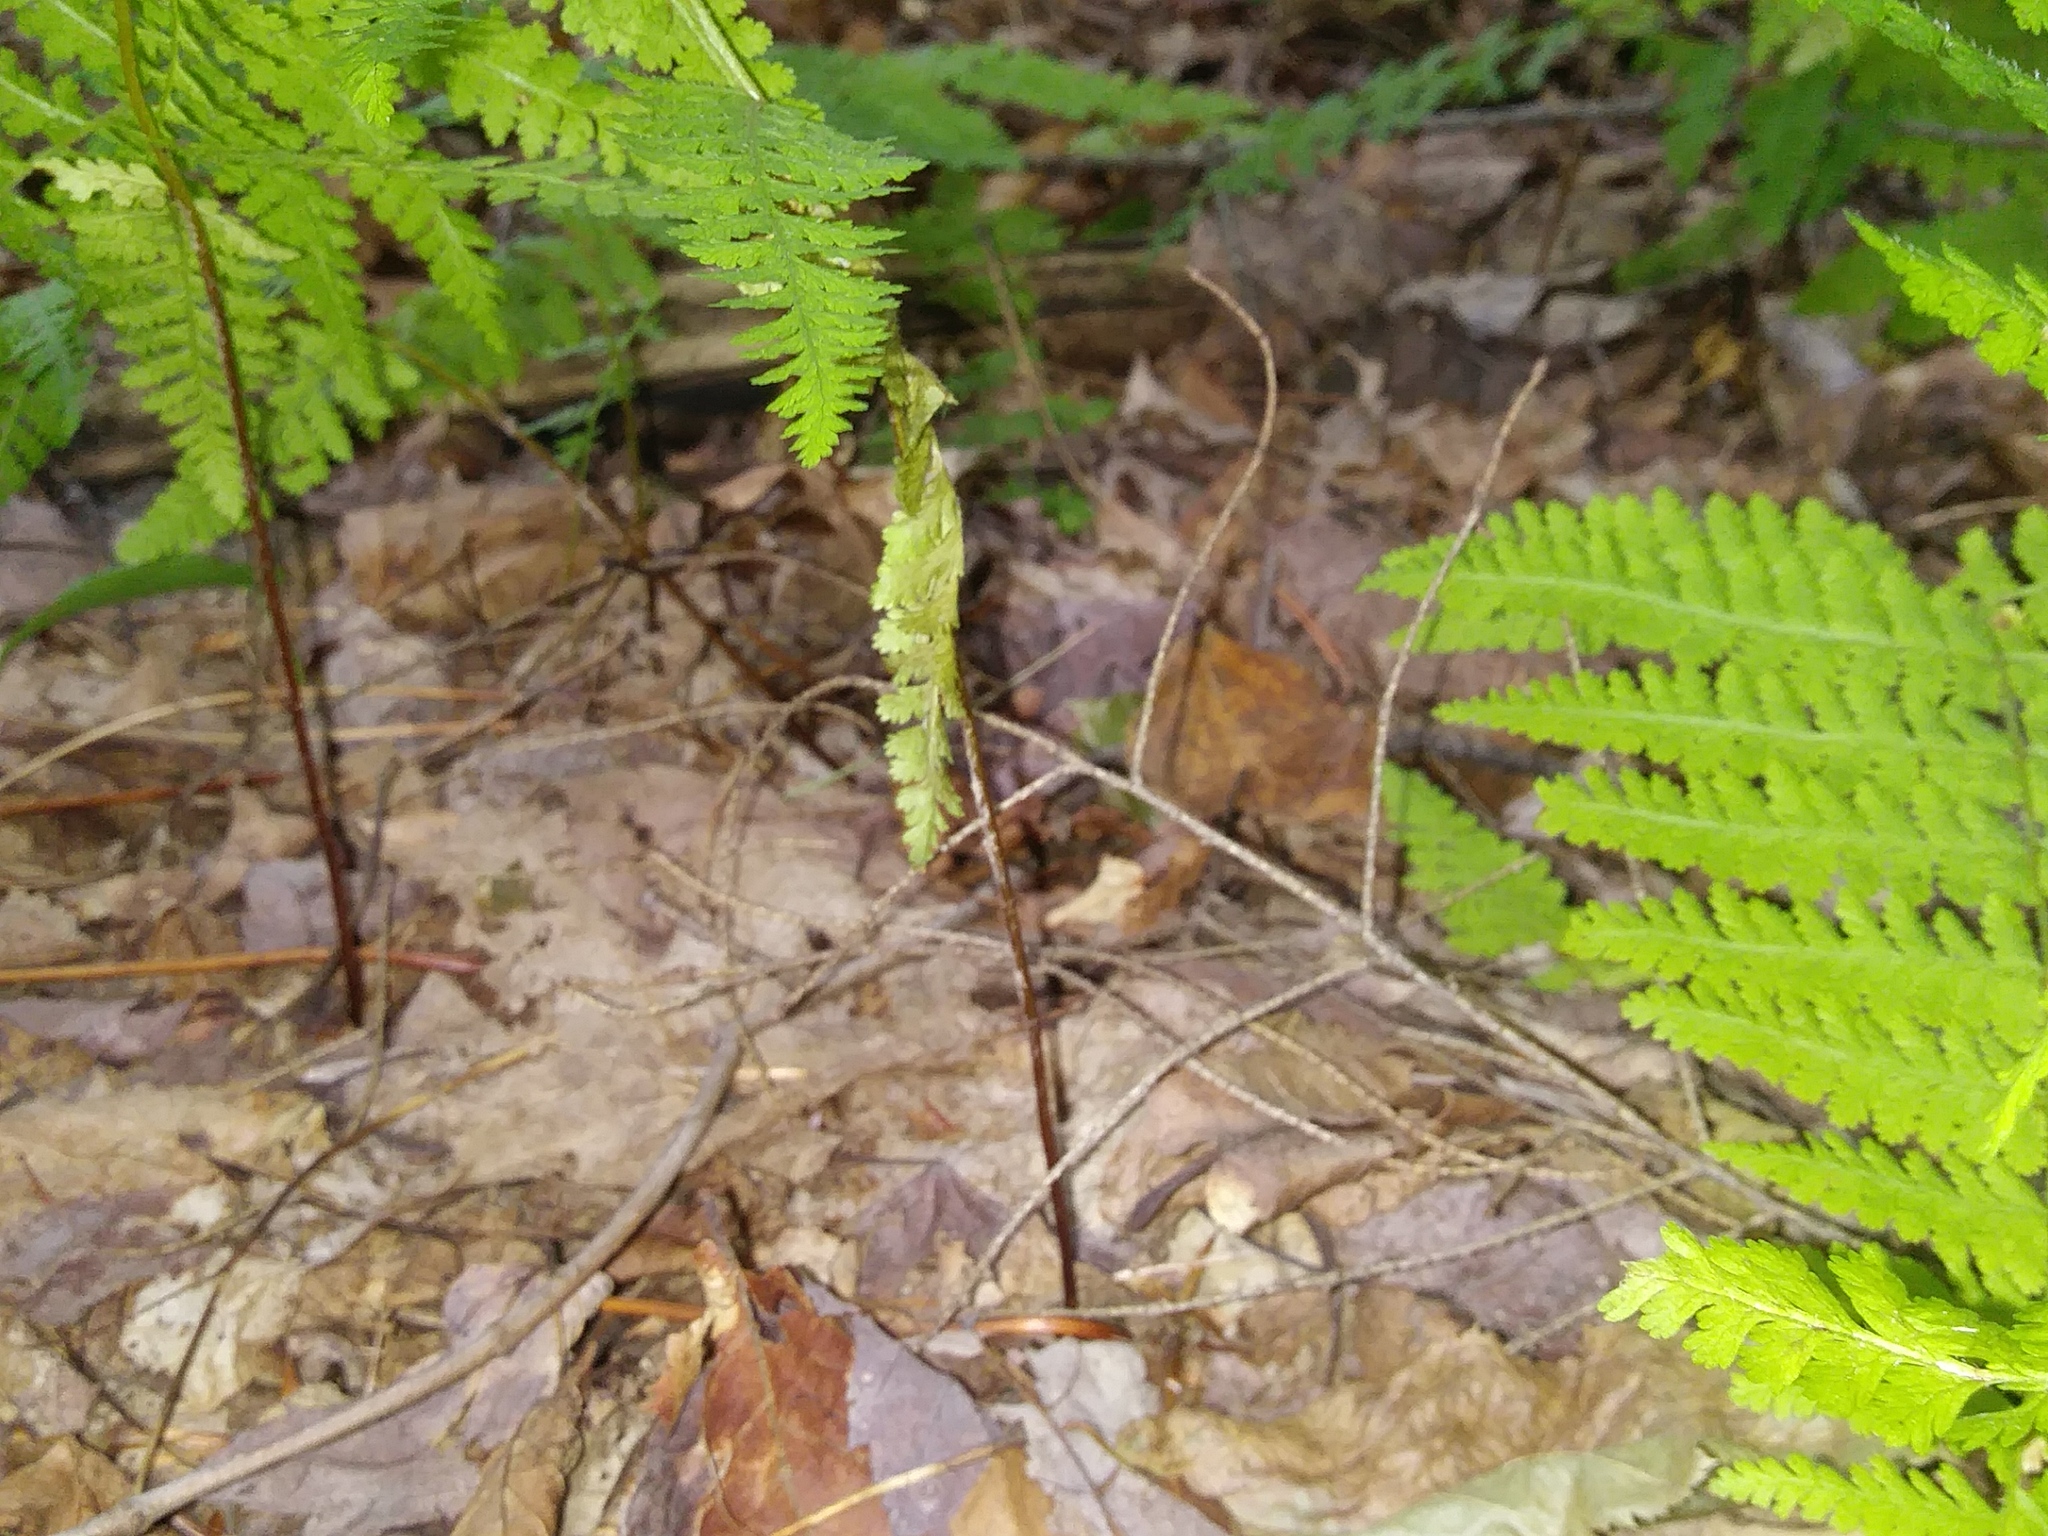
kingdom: Plantae
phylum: Tracheophyta
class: Polypodiopsida
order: Polypodiales
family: Dennstaedtiaceae
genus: Sitobolium
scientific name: Sitobolium punctilobum
